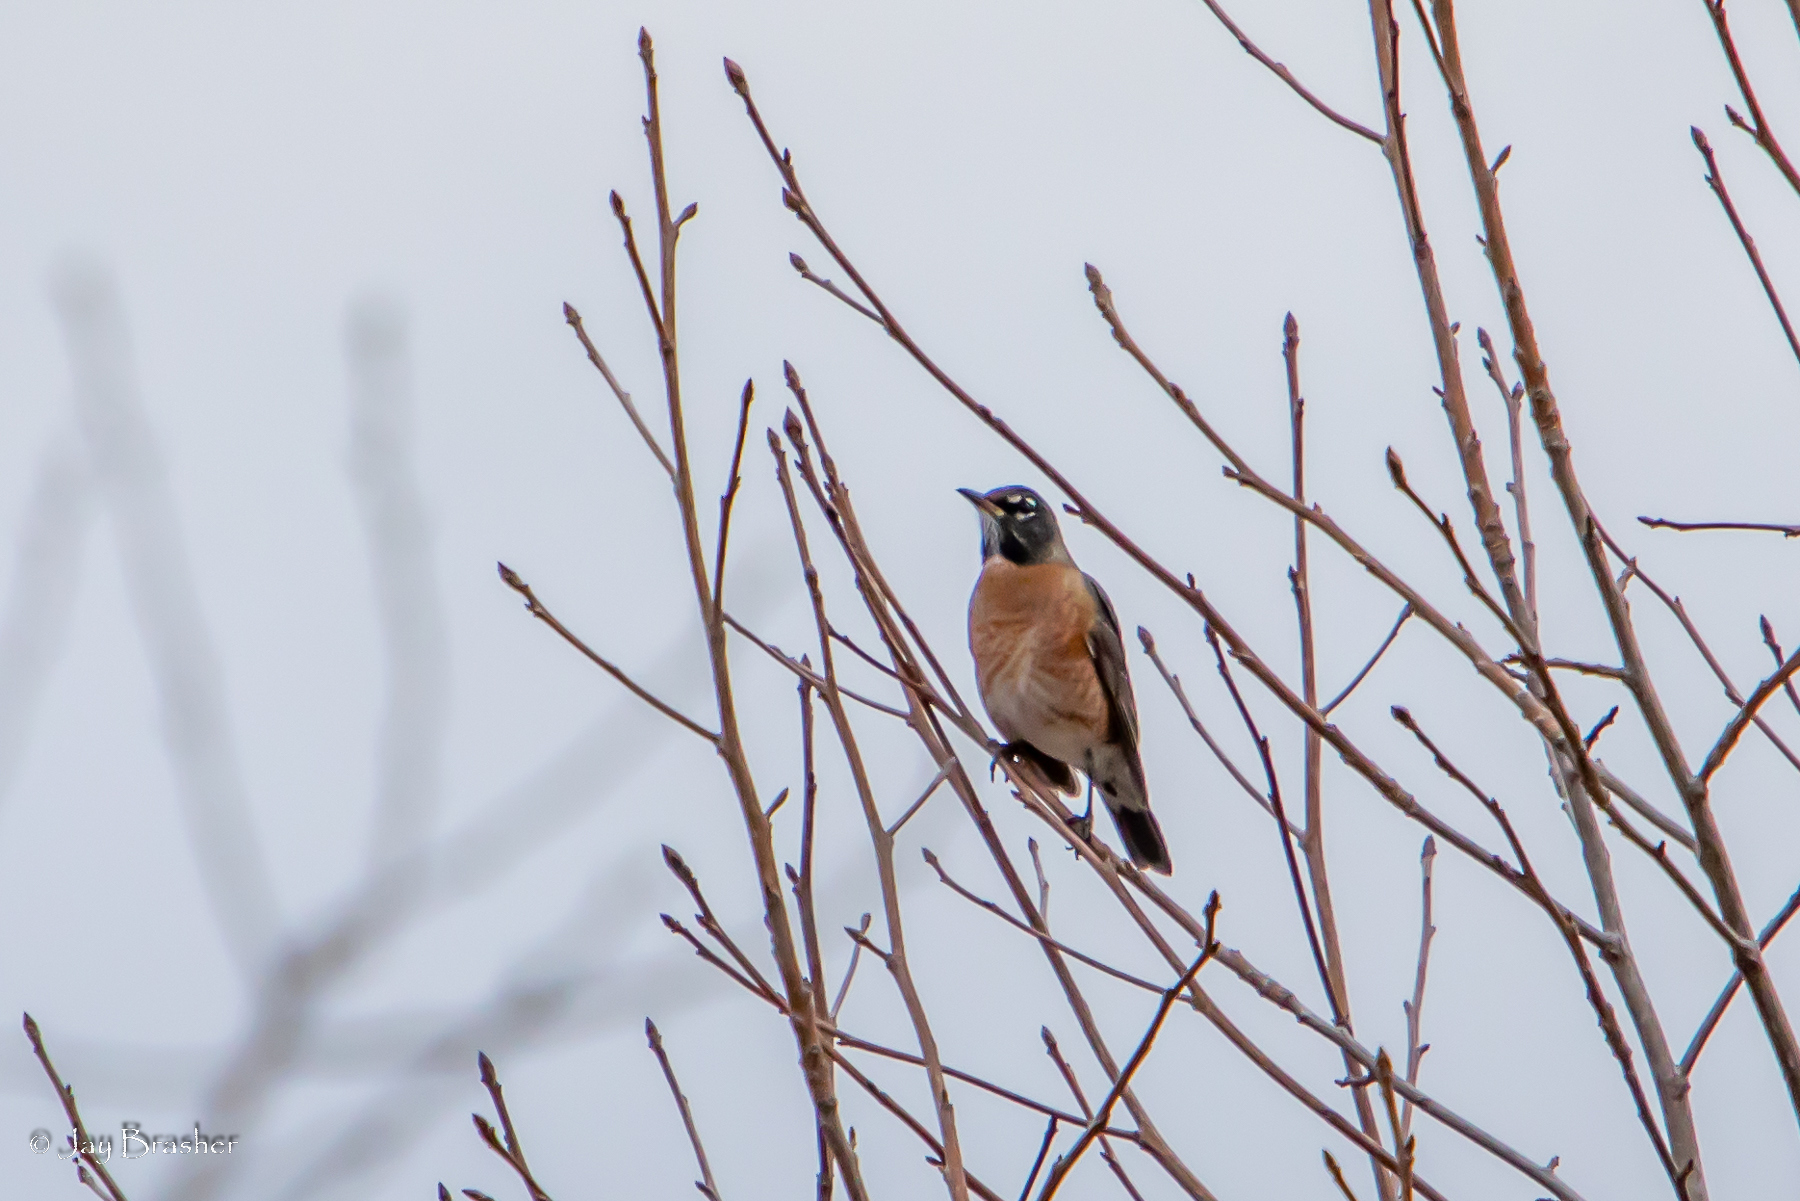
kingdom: Animalia
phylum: Chordata
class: Aves
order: Passeriformes
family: Turdidae
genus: Turdus
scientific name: Turdus migratorius
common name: American robin
